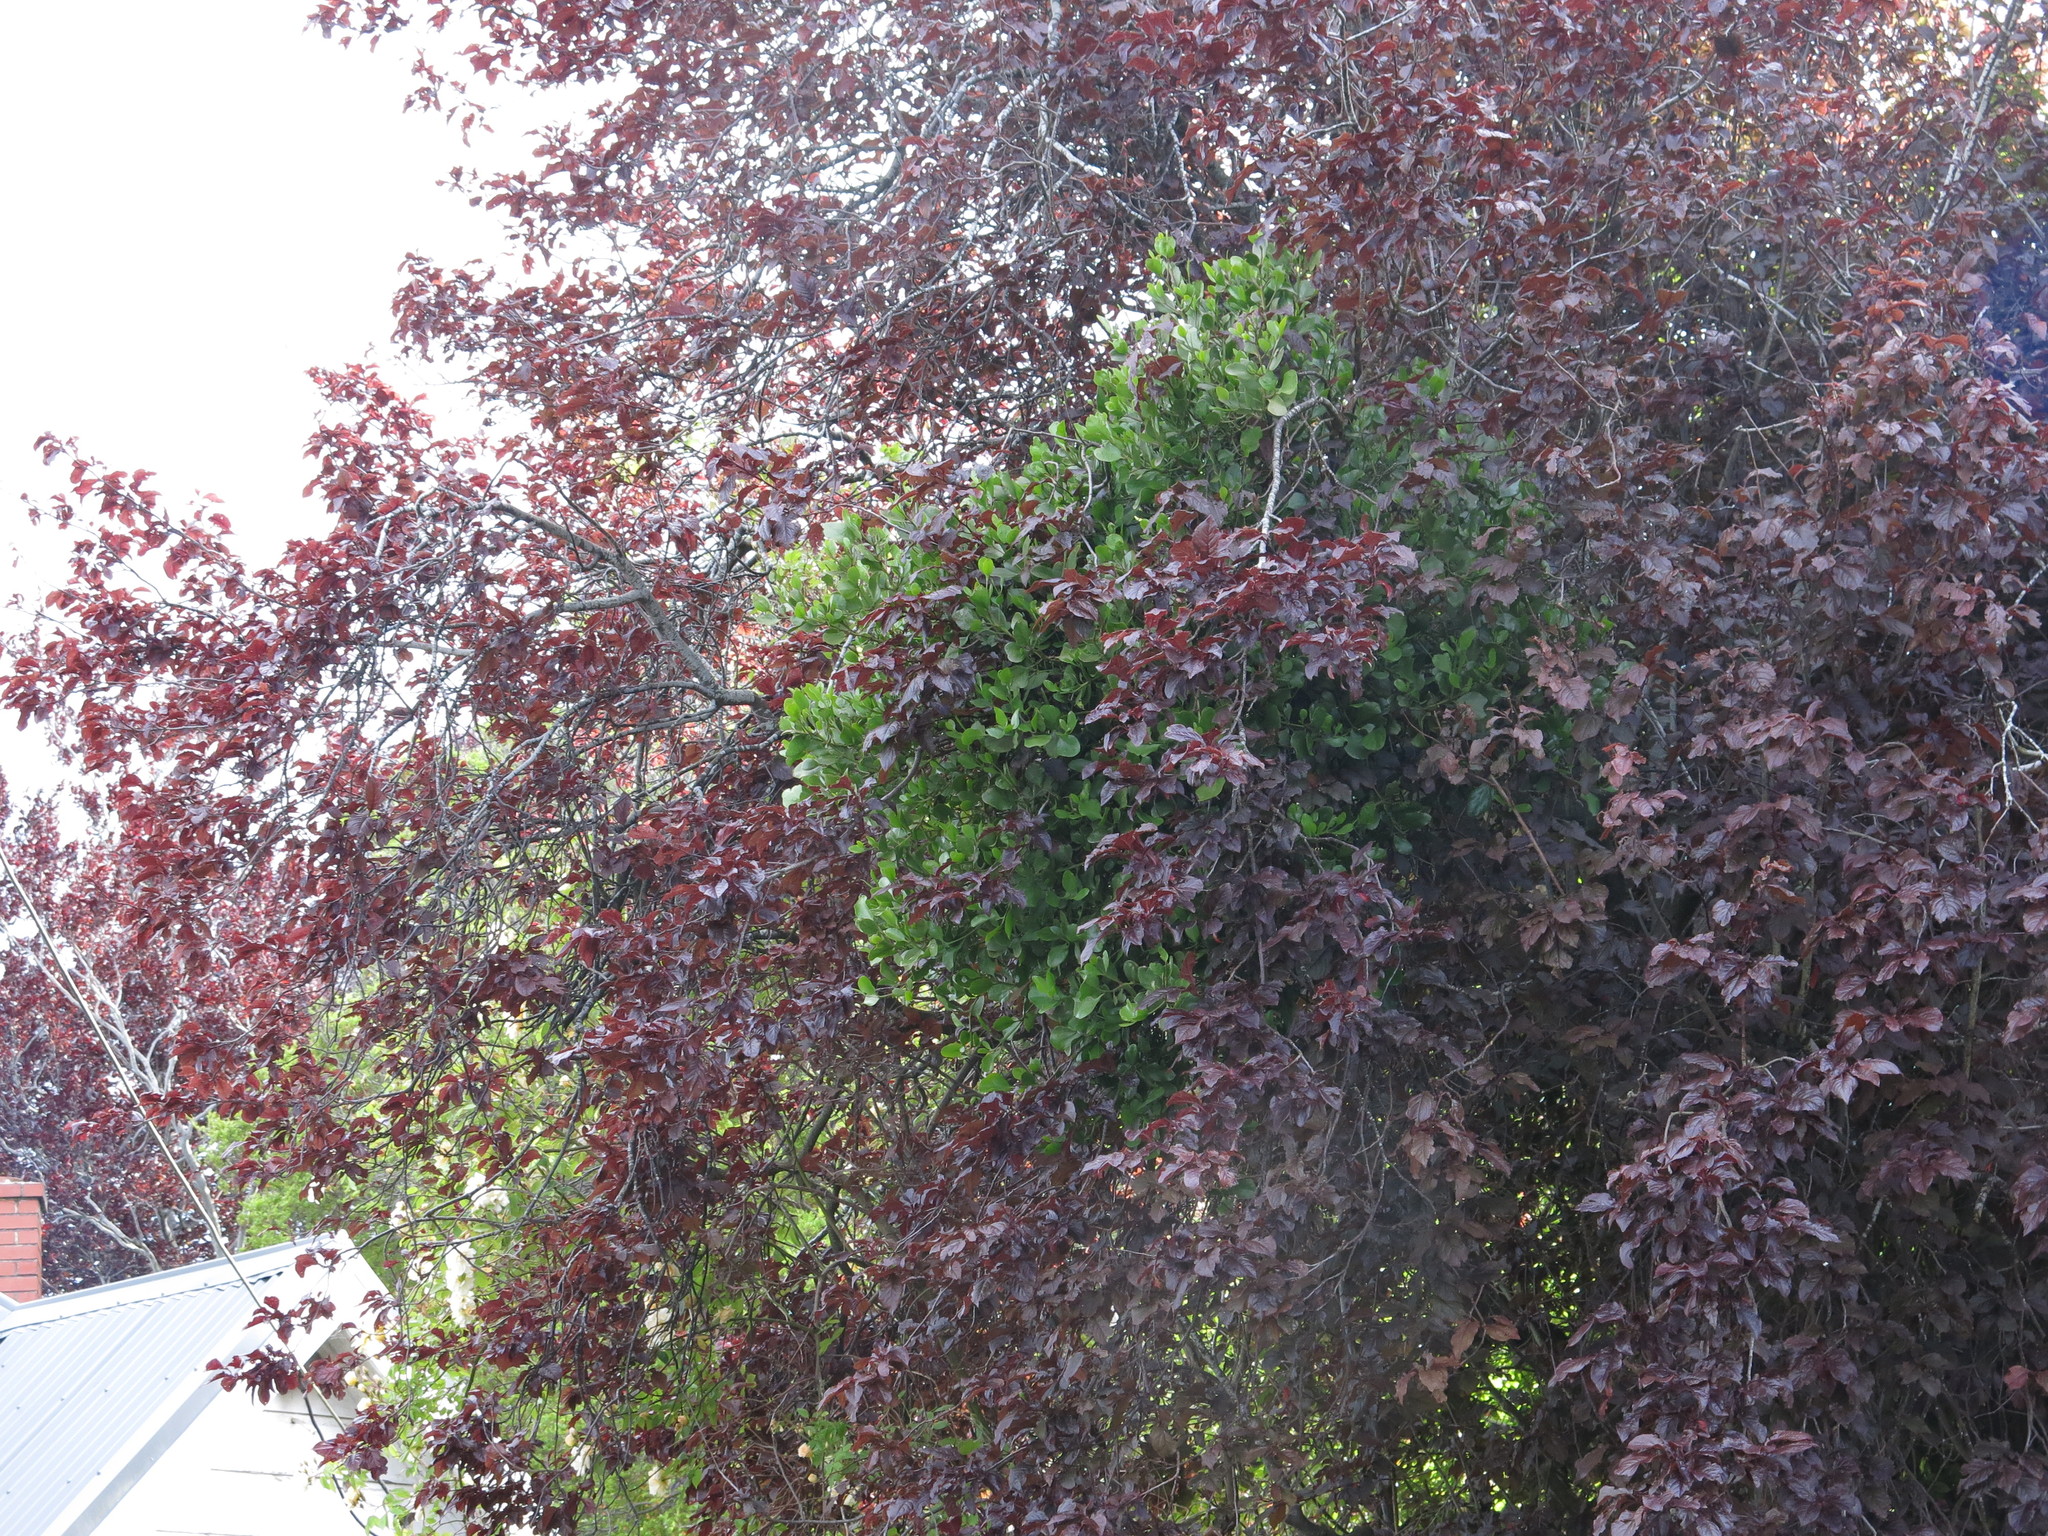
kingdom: Plantae
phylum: Tracheophyta
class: Magnoliopsida
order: Santalales
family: Loranthaceae
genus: Ileostylus
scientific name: Ileostylus micranthus
